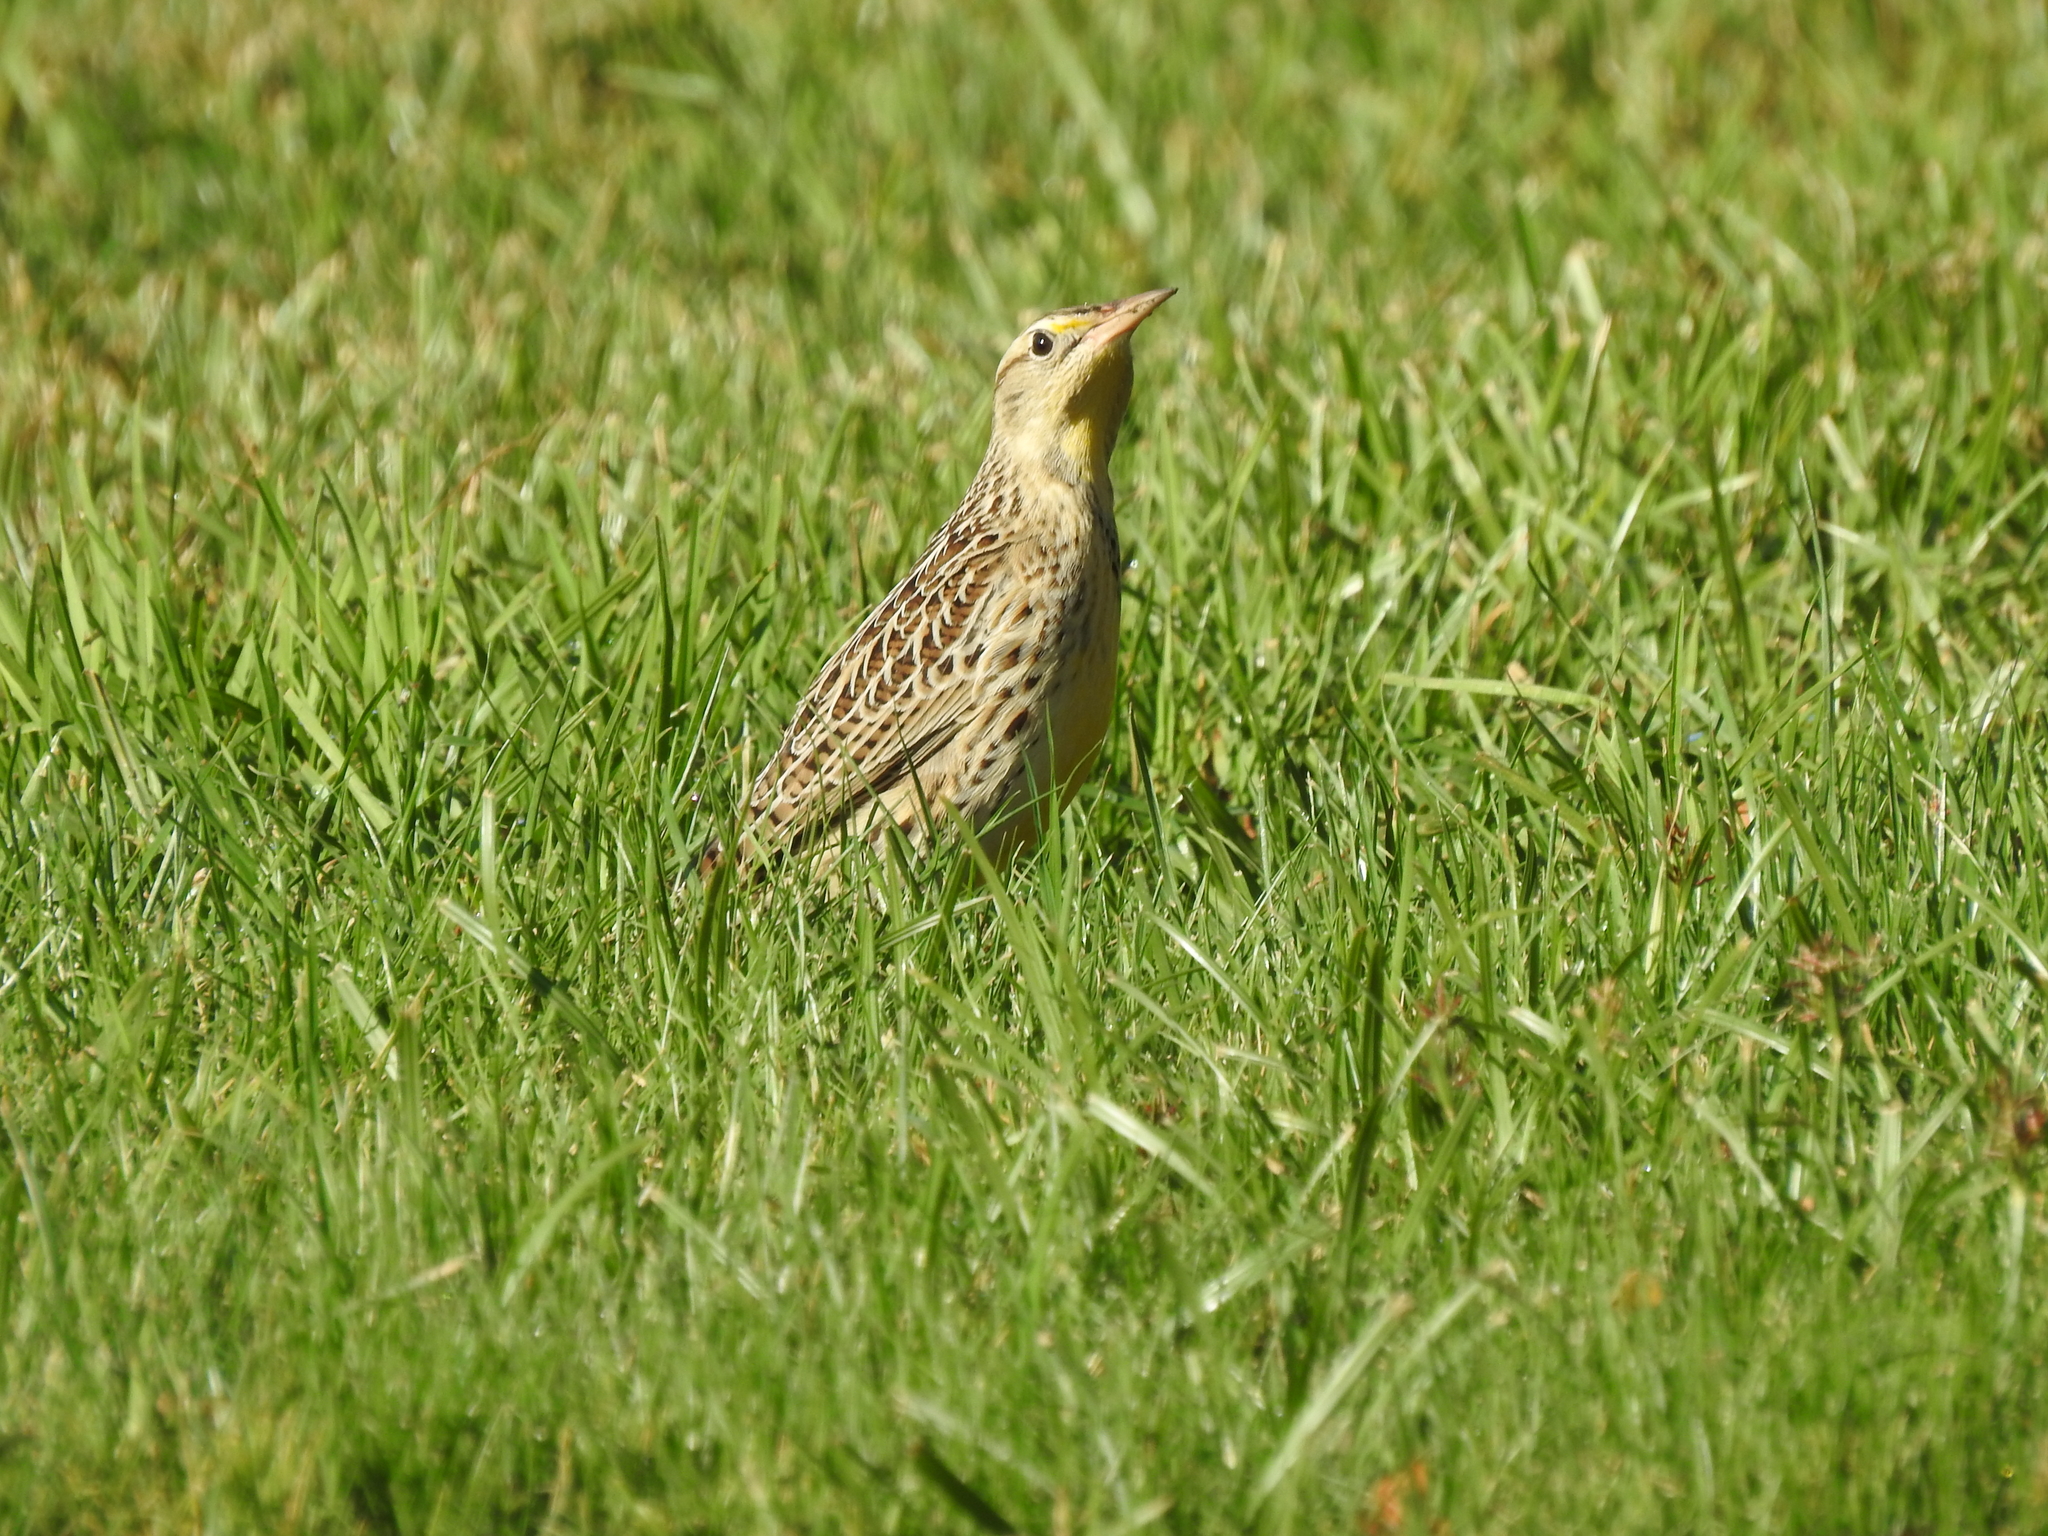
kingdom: Animalia
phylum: Chordata
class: Aves
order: Passeriformes
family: Icteridae
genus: Sturnella
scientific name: Sturnella neglecta
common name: Western meadowlark
